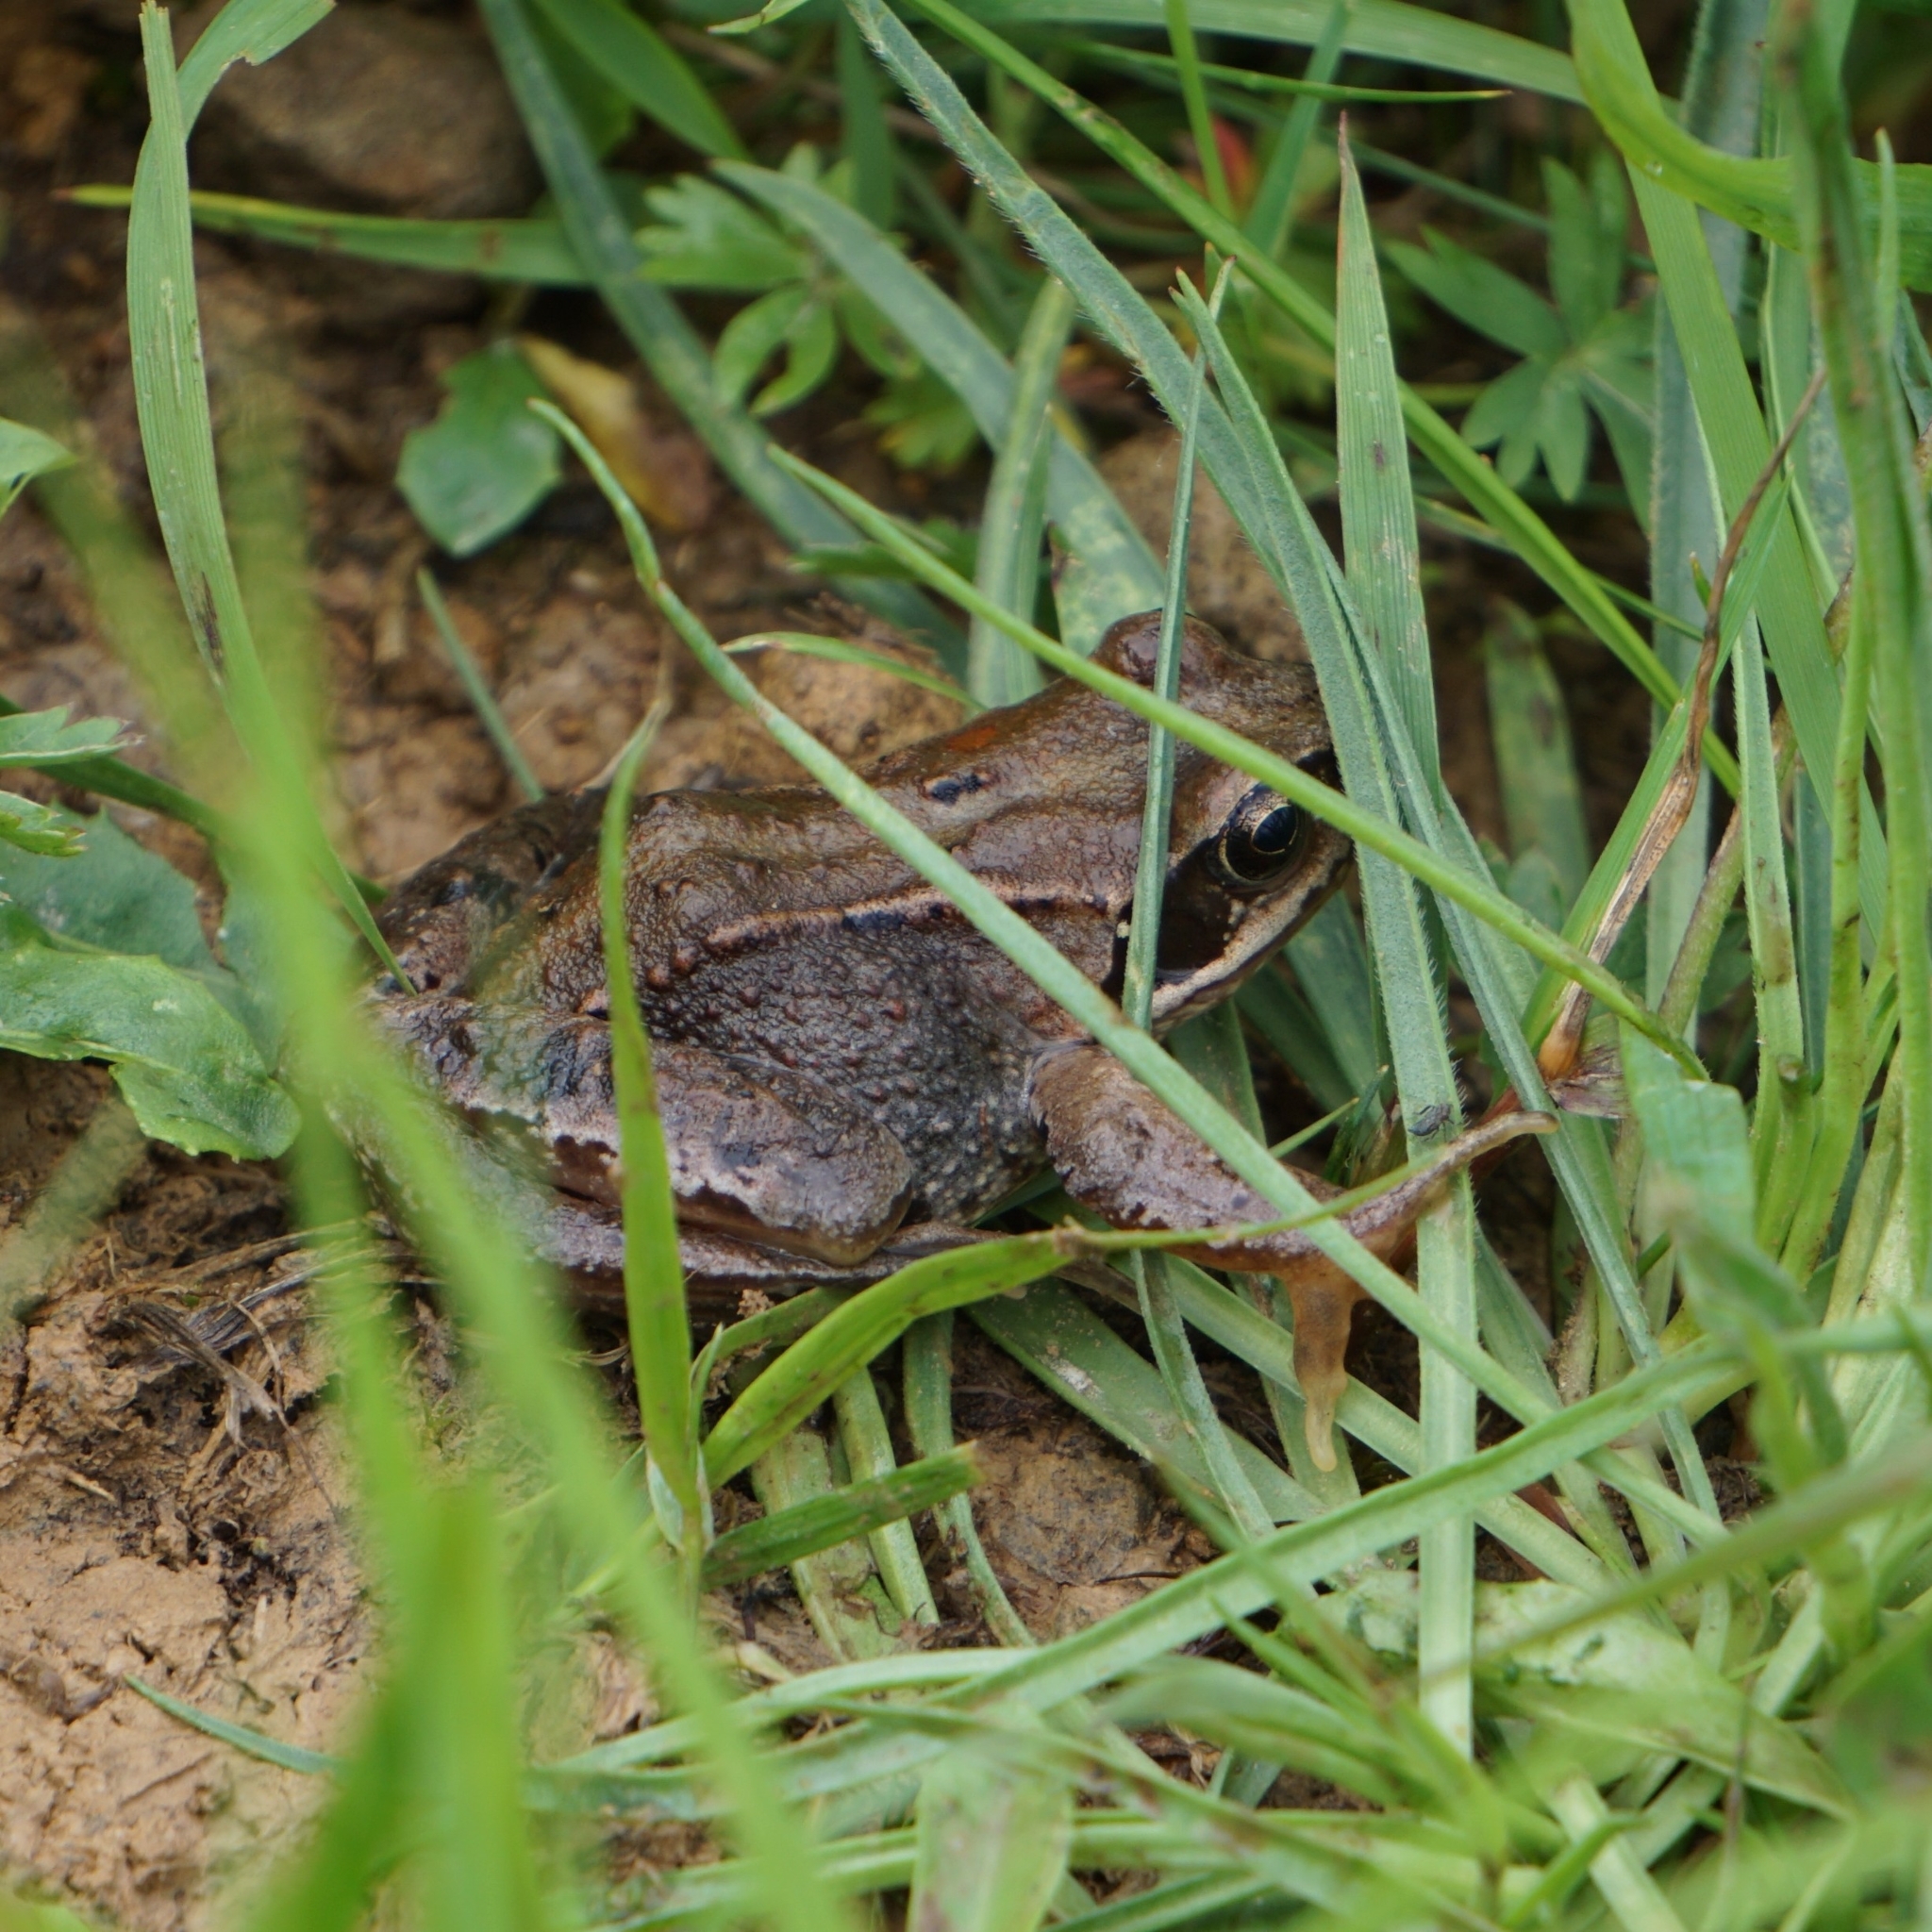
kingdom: Animalia
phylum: Chordata
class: Amphibia
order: Anura
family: Ranidae
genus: Rana
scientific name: Rana temporaria
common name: Common frog
